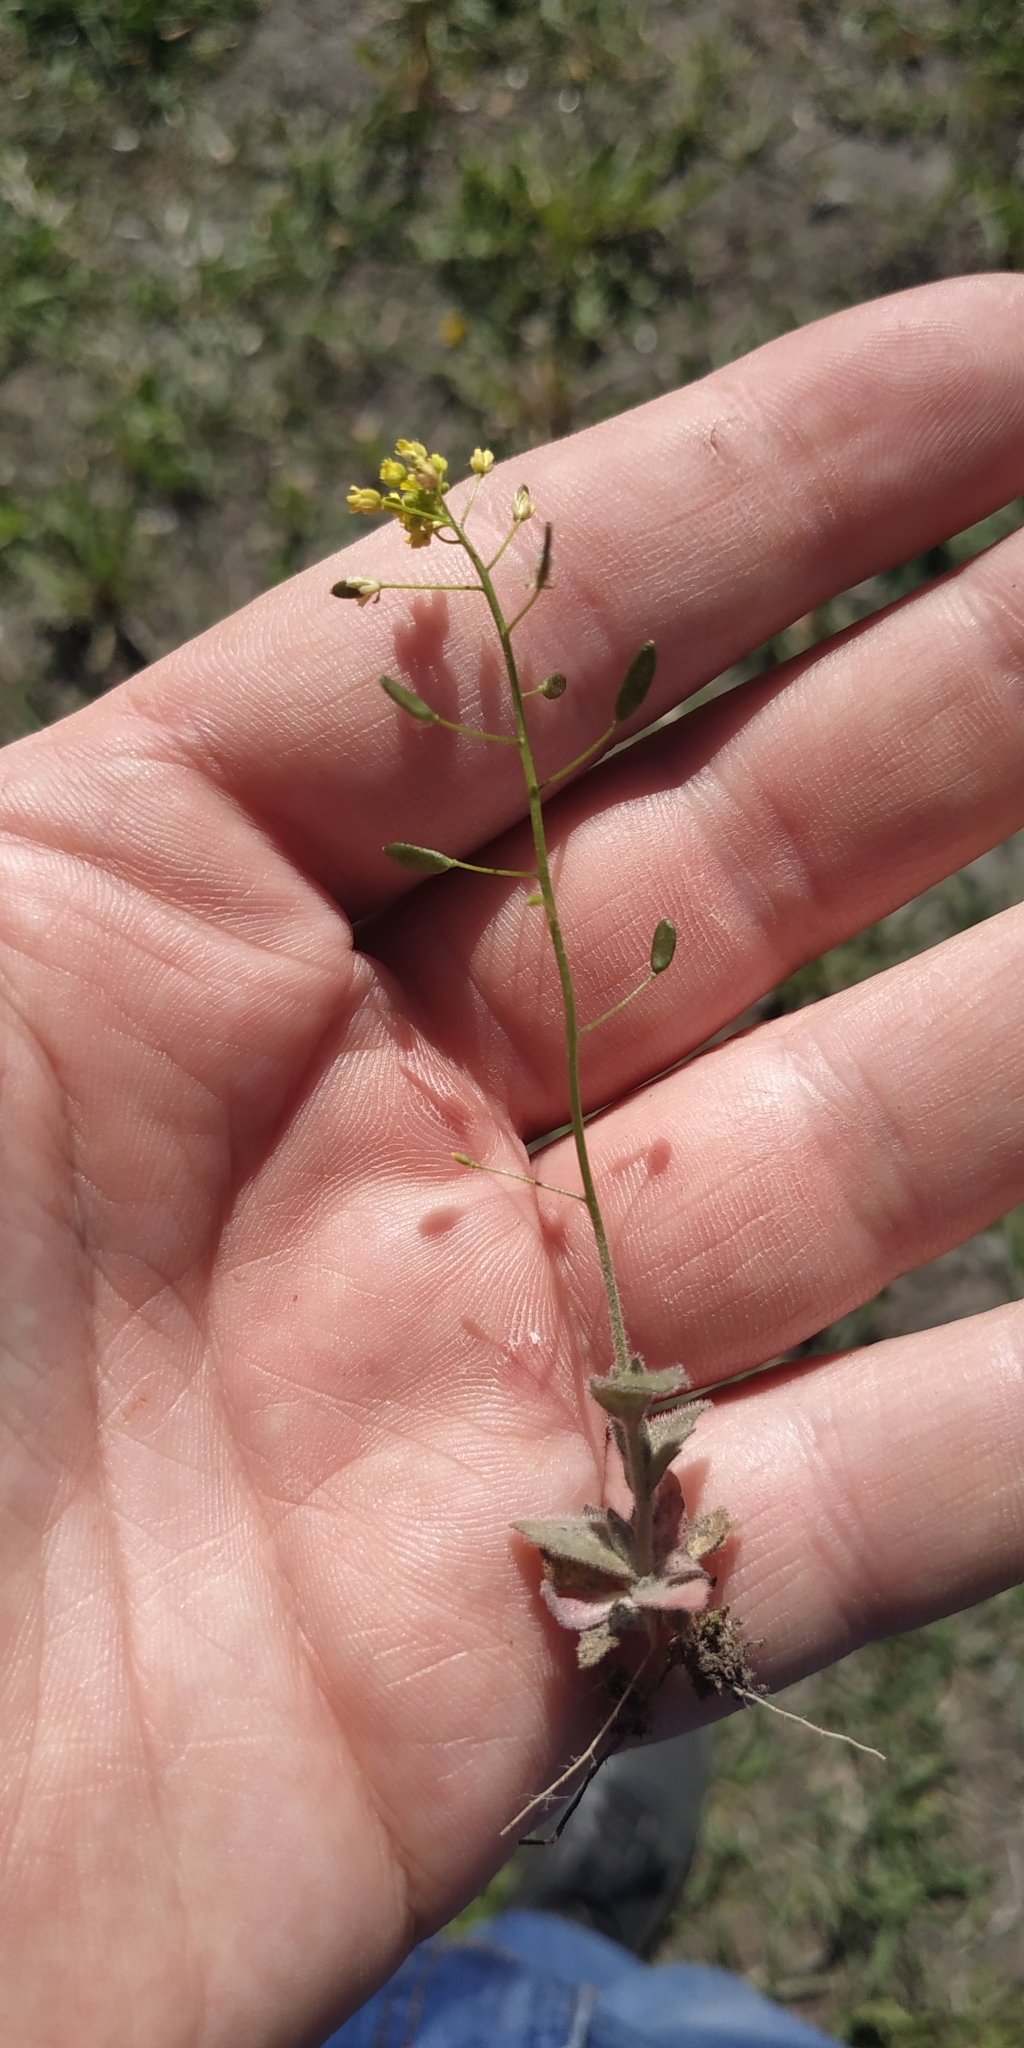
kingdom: Plantae
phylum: Tracheophyta
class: Magnoliopsida
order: Brassicales
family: Brassicaceae
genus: Draba
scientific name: Draba nemorosa
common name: Wood whitlow-grass
